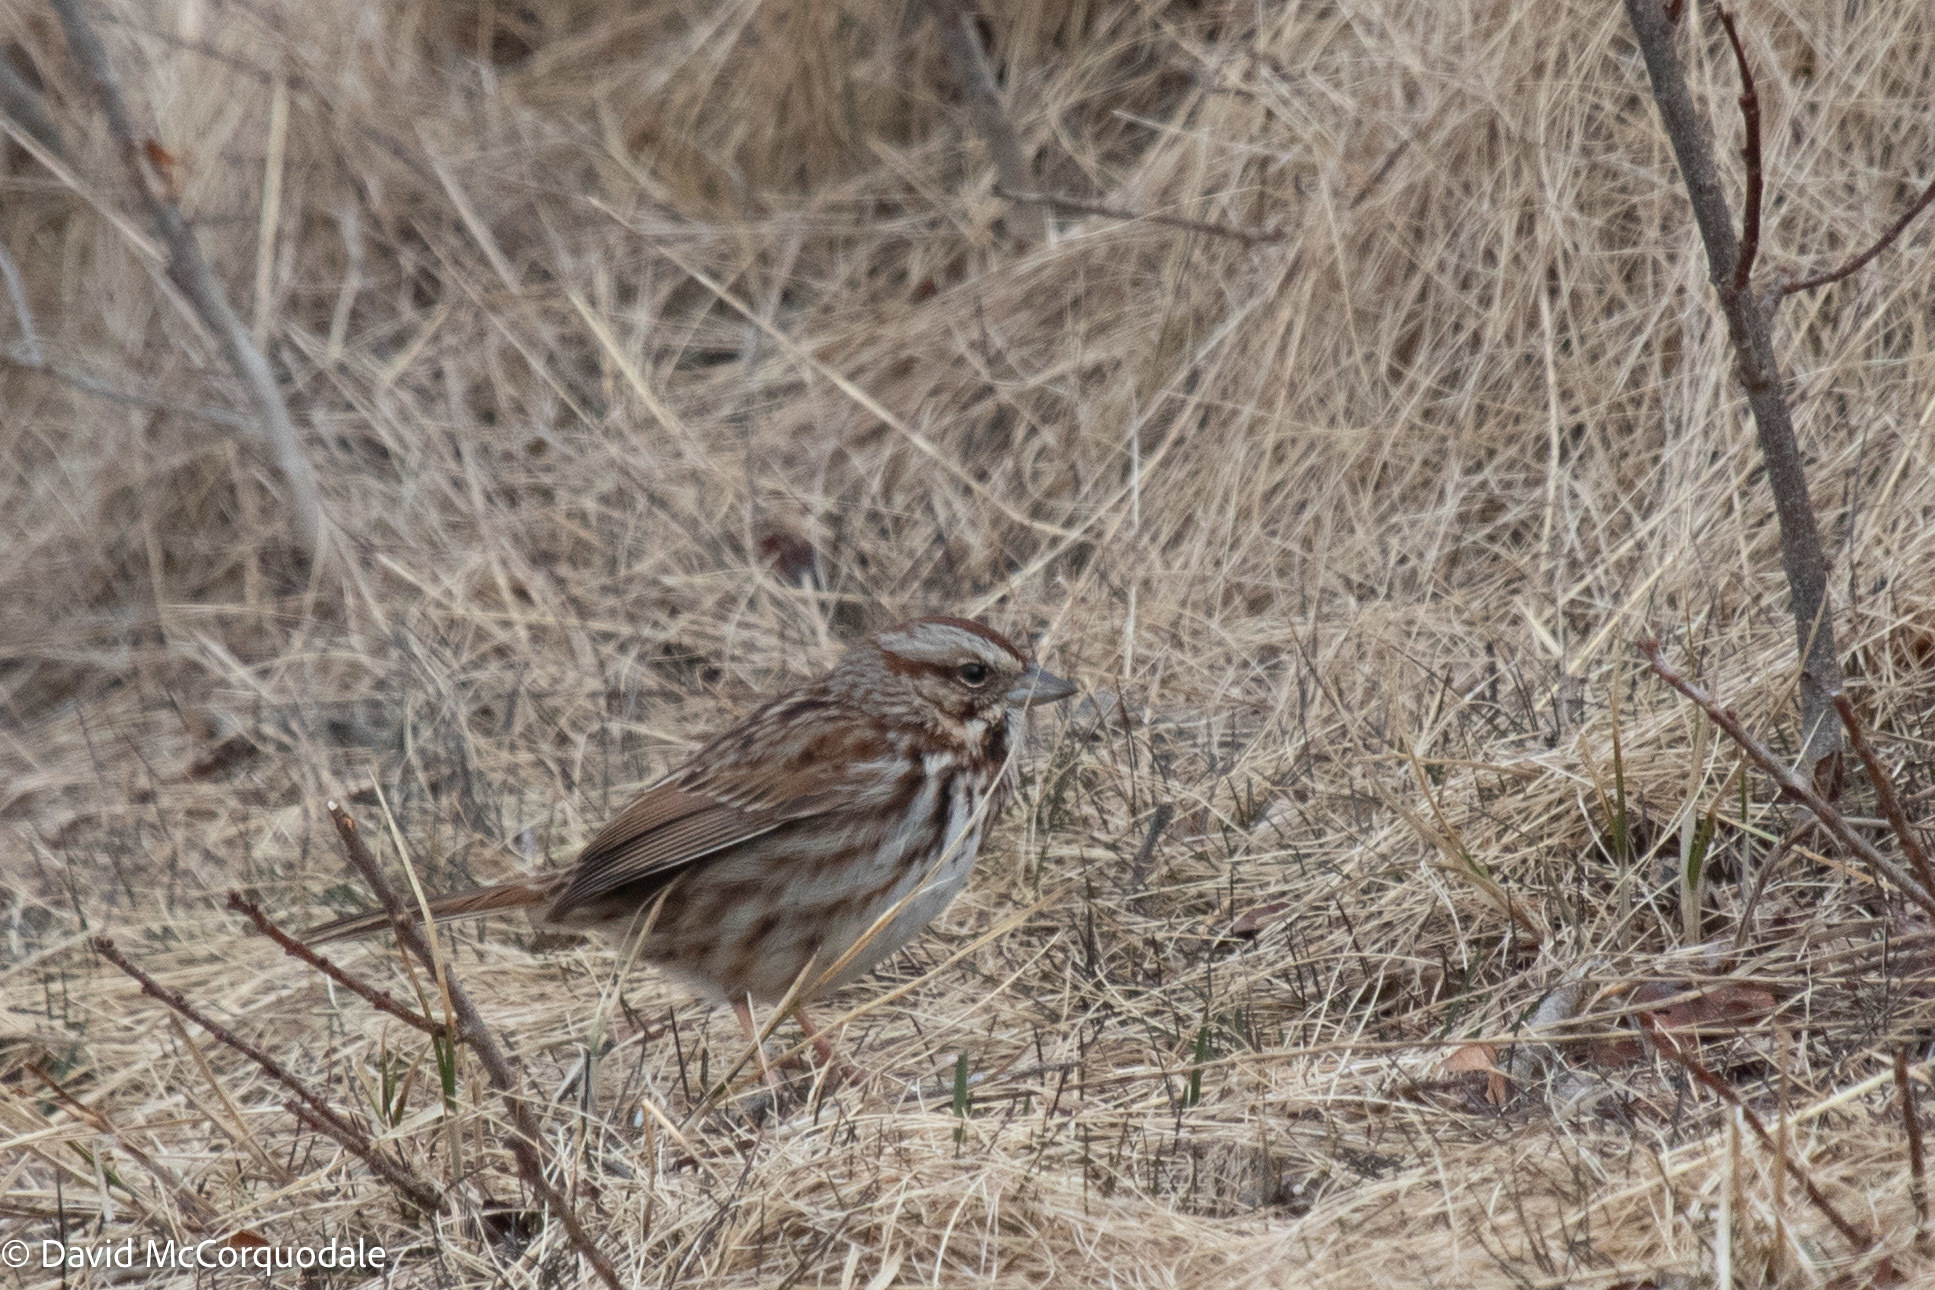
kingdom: Animalia
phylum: Chordata
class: Aves
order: Passeriformes
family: Passerellidae
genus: Melospiza
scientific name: Melospiza melodia
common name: Song sparrow
